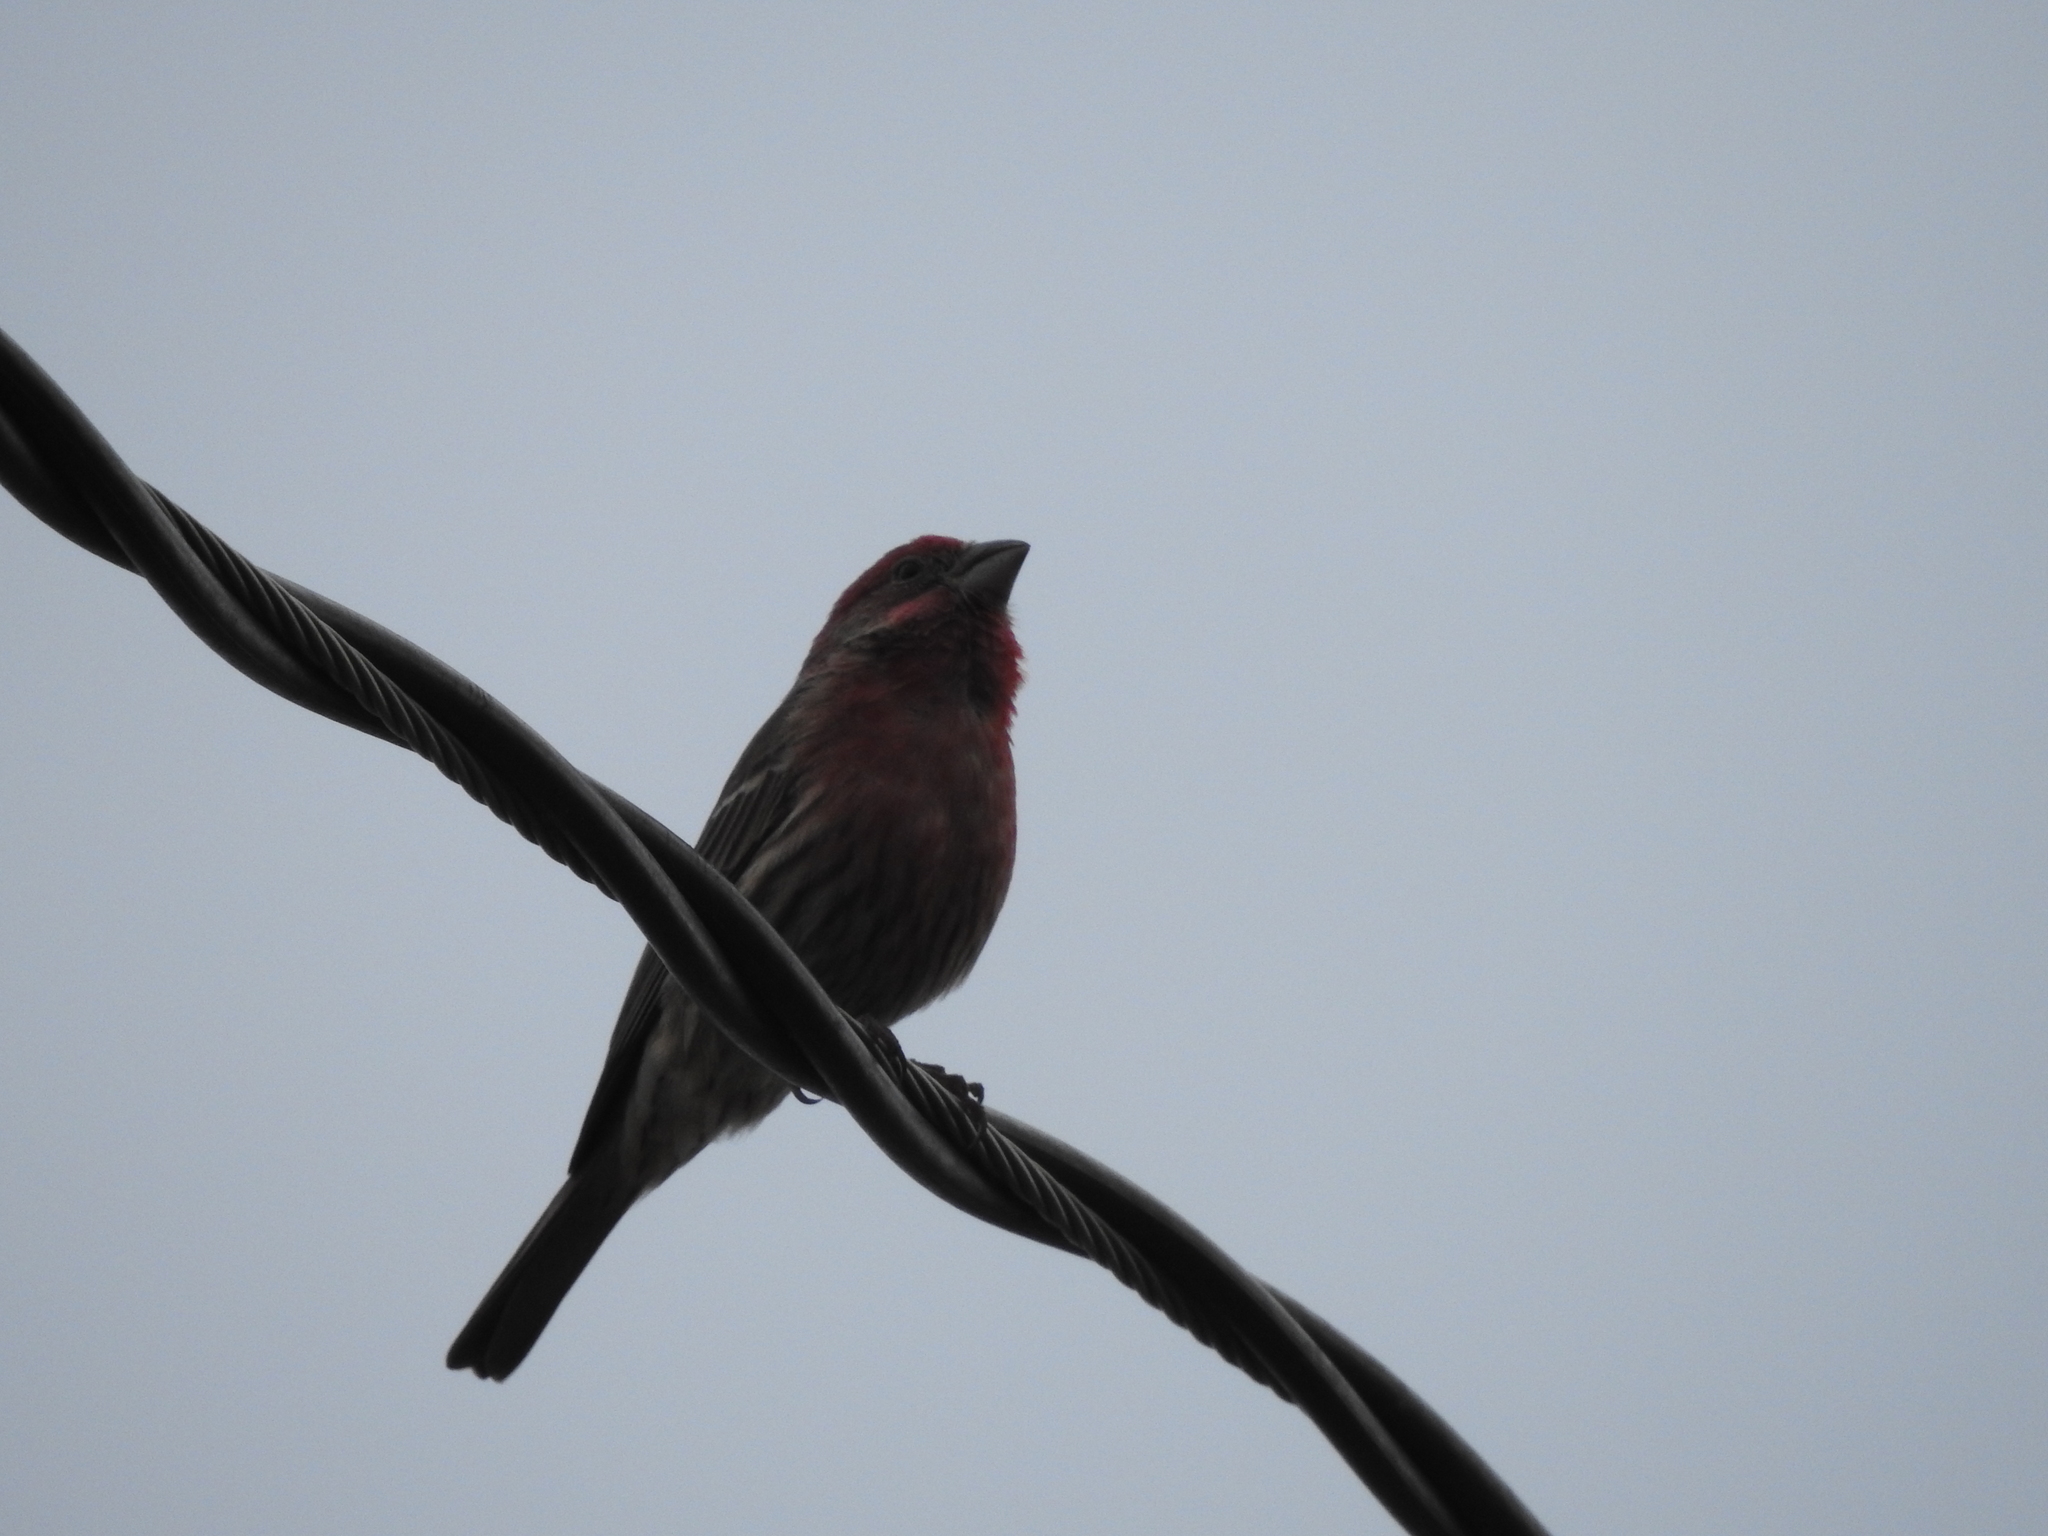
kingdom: Animalia
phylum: Chordata
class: Aves
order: Passeriformes
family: Fringillidae
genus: Haemorhous
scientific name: Haemorhous mexicanus
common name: House finch
